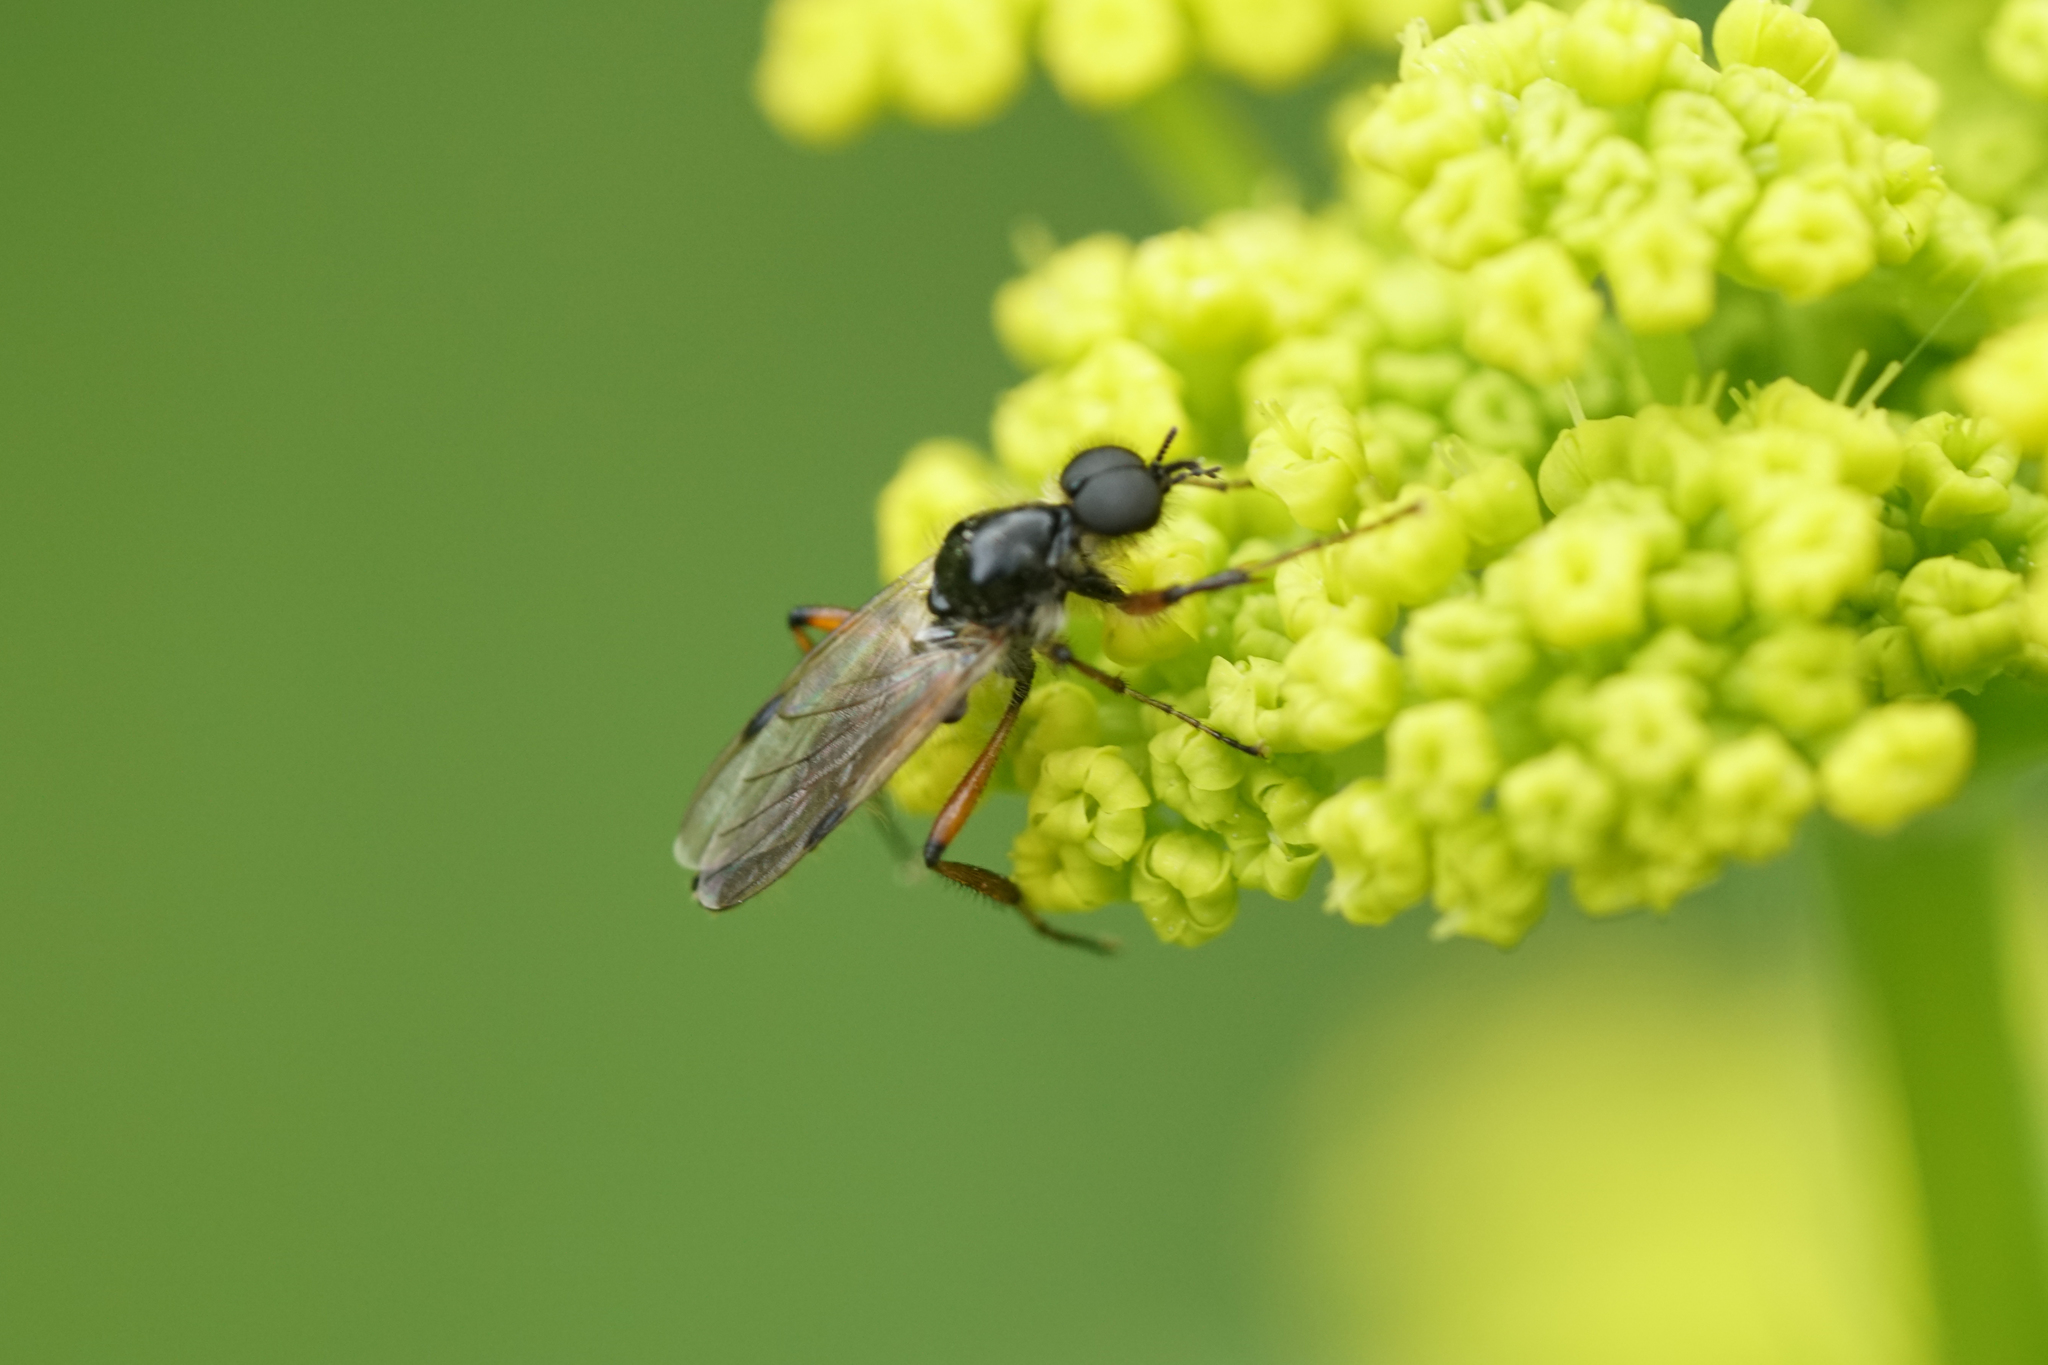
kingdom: Animalia
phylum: Arthropoda
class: Insecta
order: Diptera
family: Bibionidae
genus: Bibio
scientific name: Bibio
